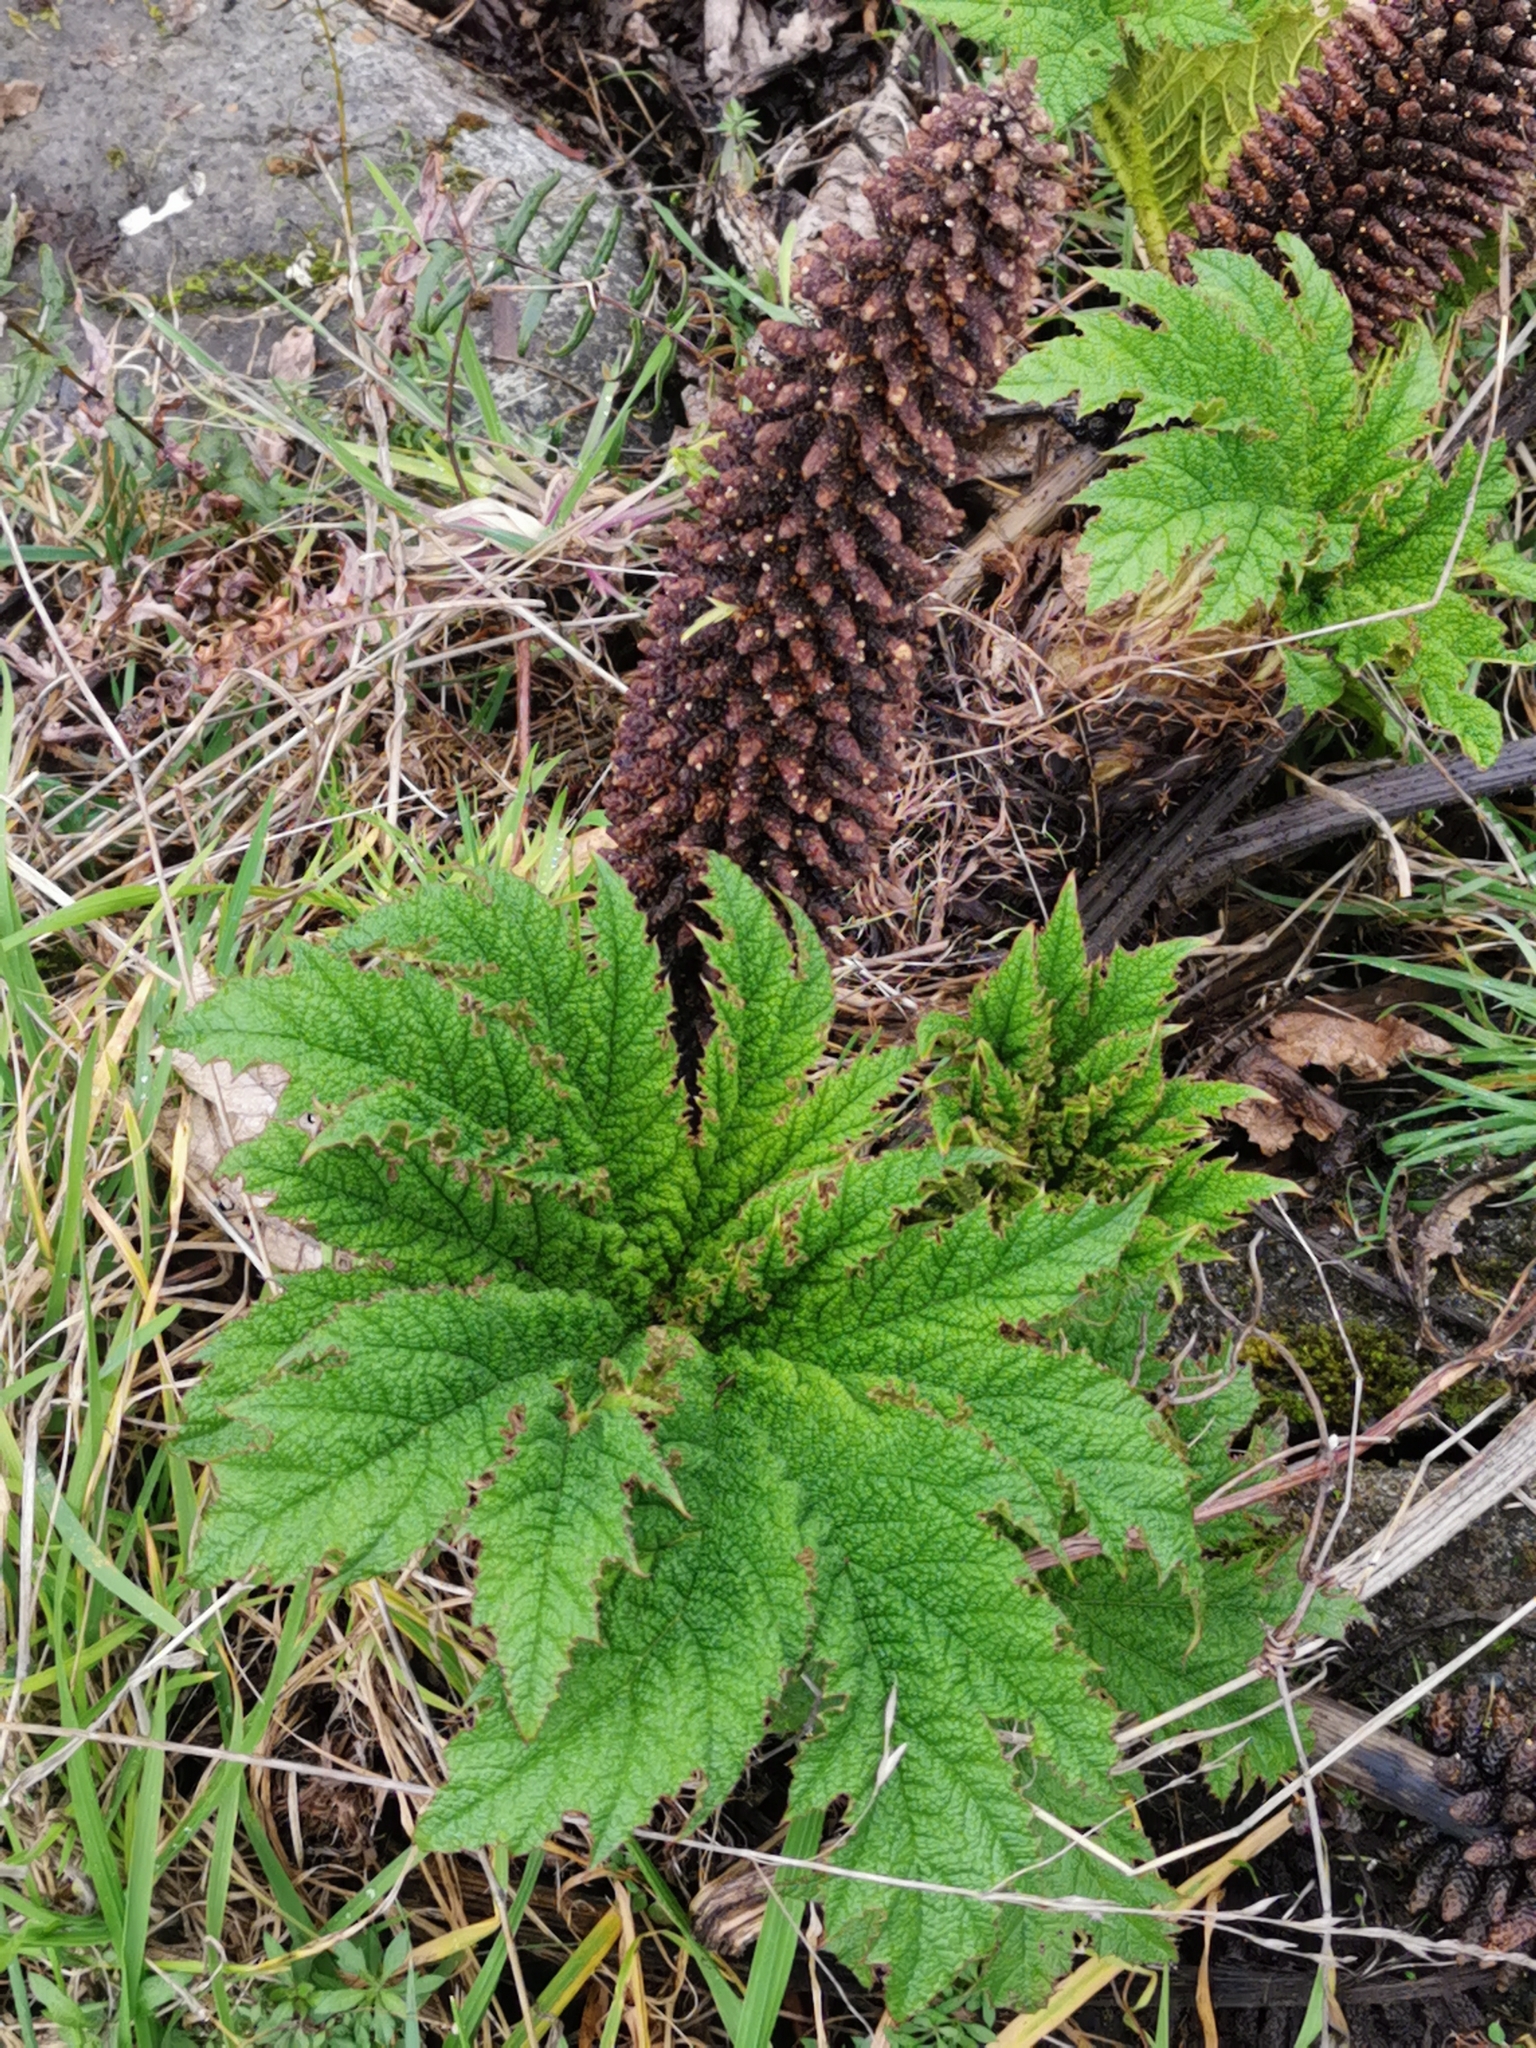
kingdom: Plantae
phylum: Tracheophyta
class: Magnoliopsida
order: Gunnerales
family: Gunneraceae
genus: Gunnera
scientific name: Gunnera tinctoria
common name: Giant-rhubarb
